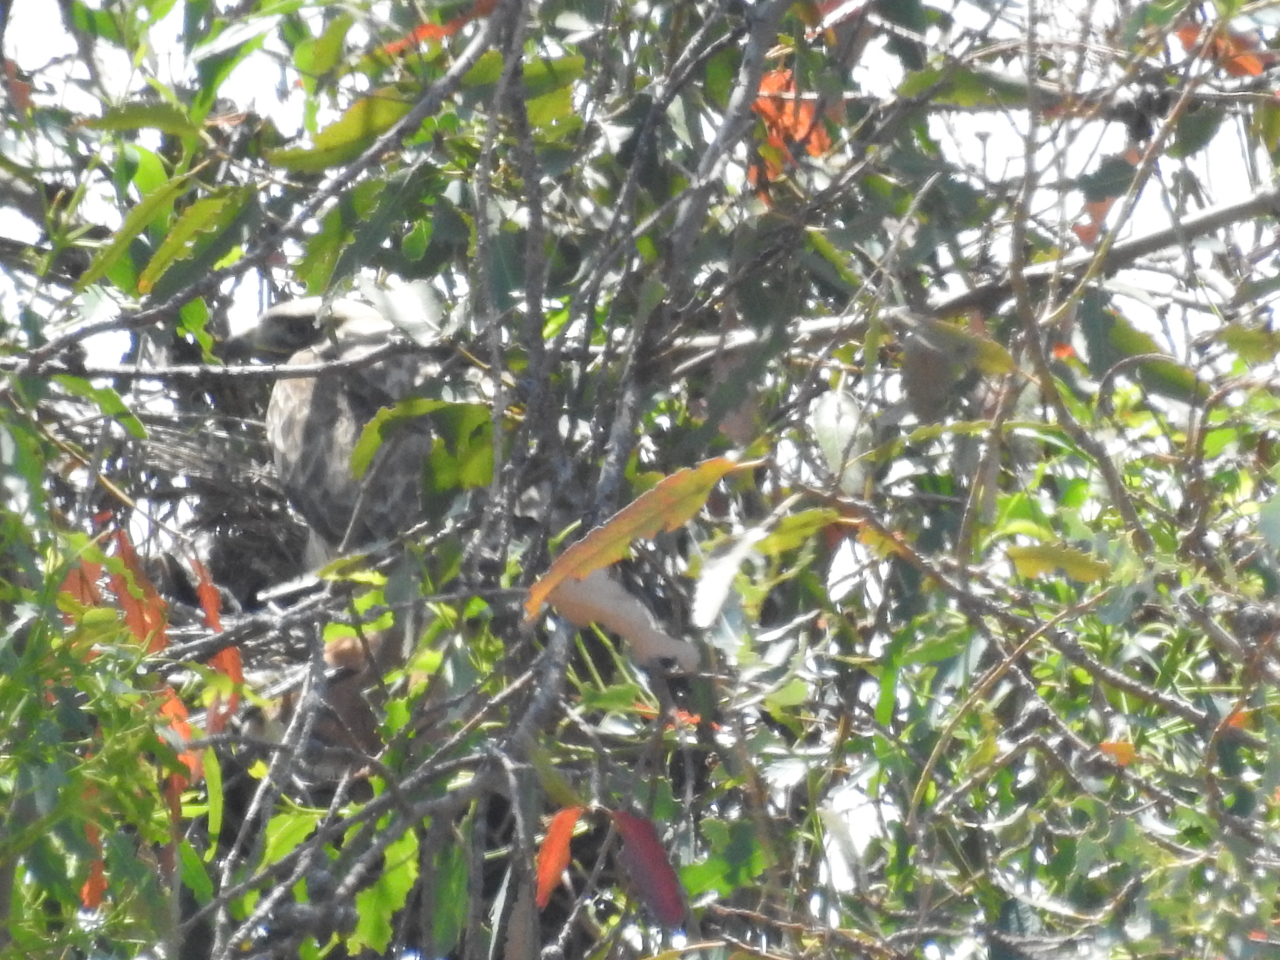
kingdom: Animalia
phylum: Chordata
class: Aves
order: Accipitriformes
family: Accipitridae
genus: Buteo
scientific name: Buteo jamaicensis
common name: Red-tailed hawk
